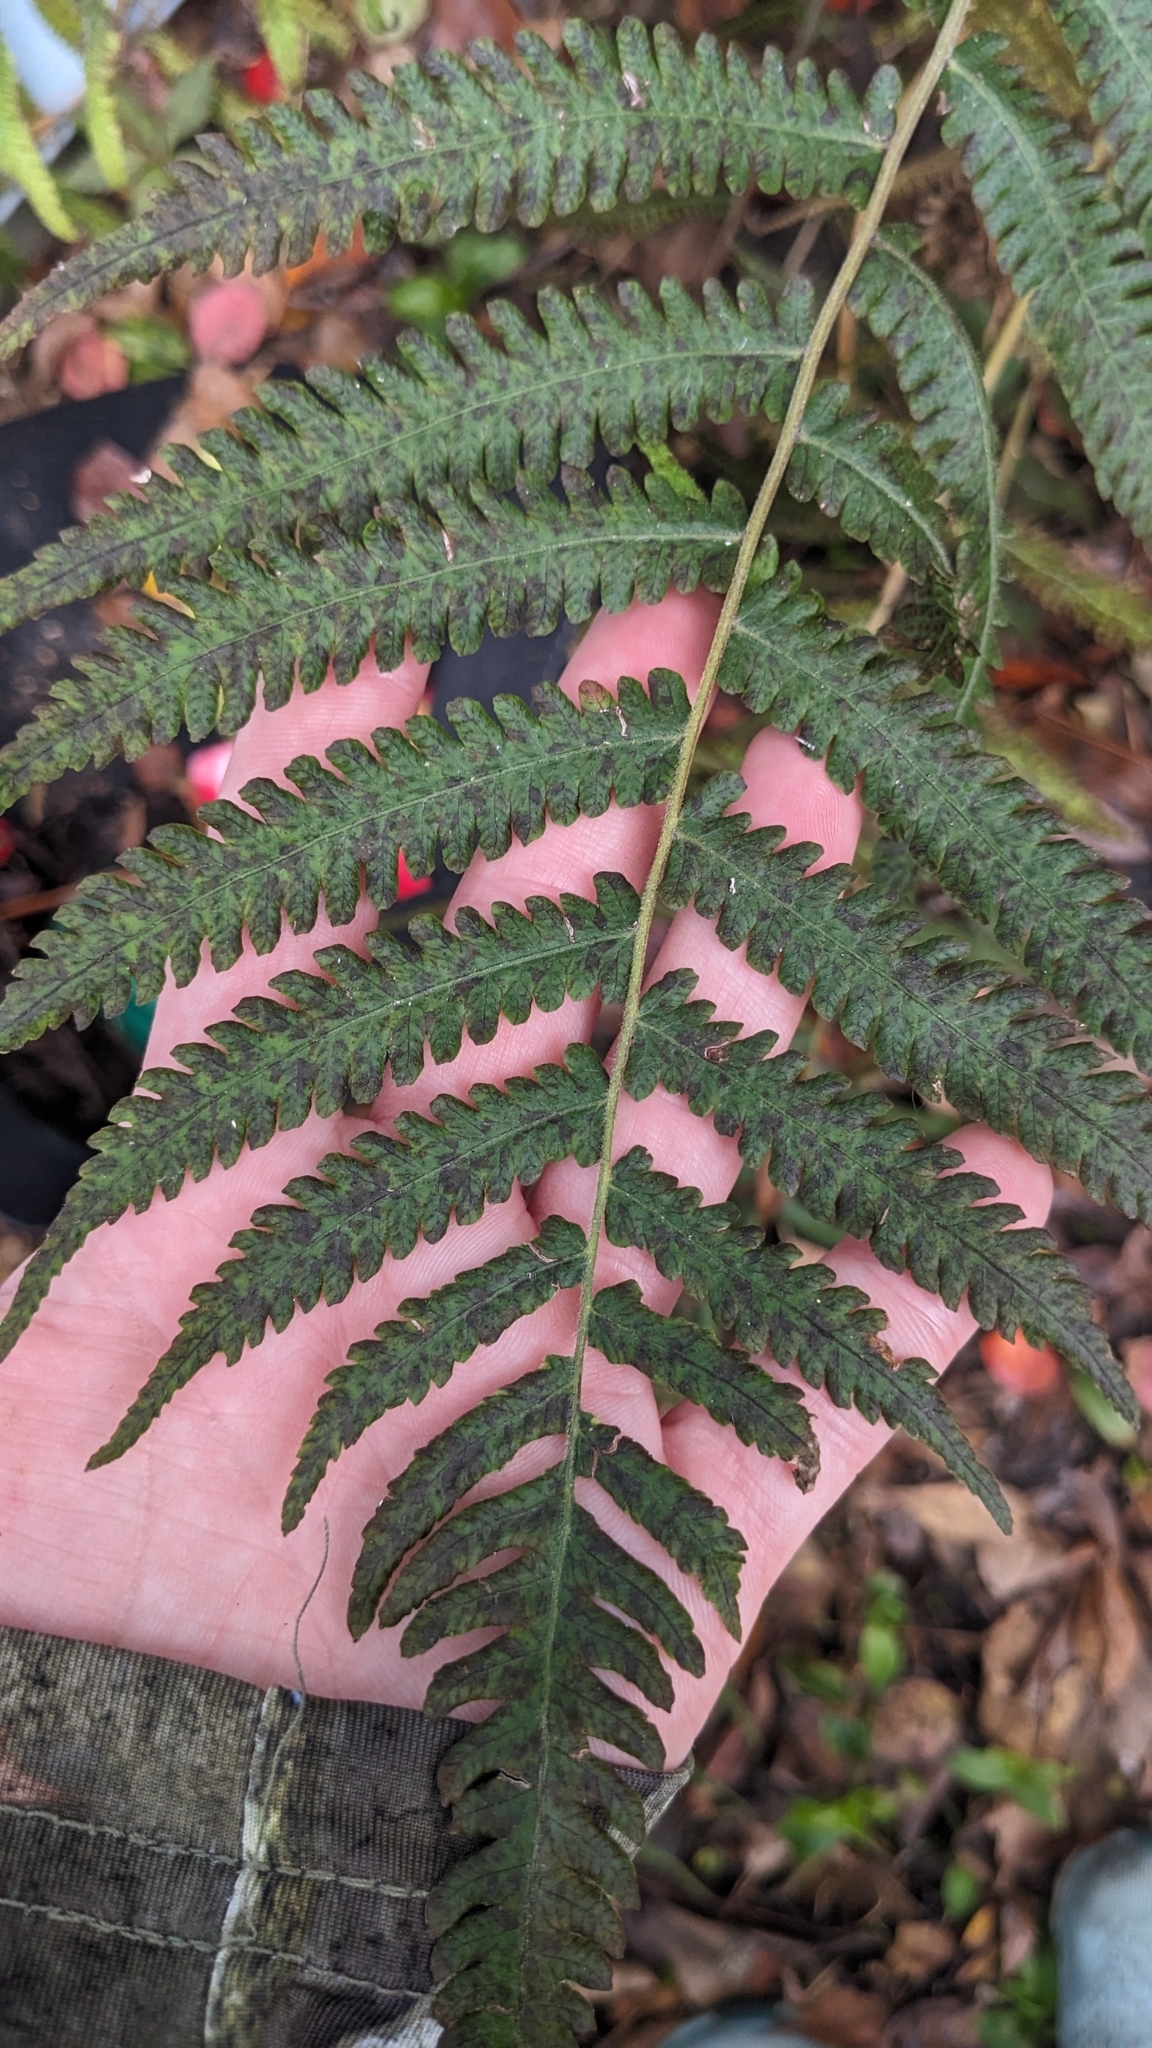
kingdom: Plantae
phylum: Tracheophyta
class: Polypodiopsida
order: Polypodiales
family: Thelypteridaceae
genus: Christella
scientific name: Christella dentata
